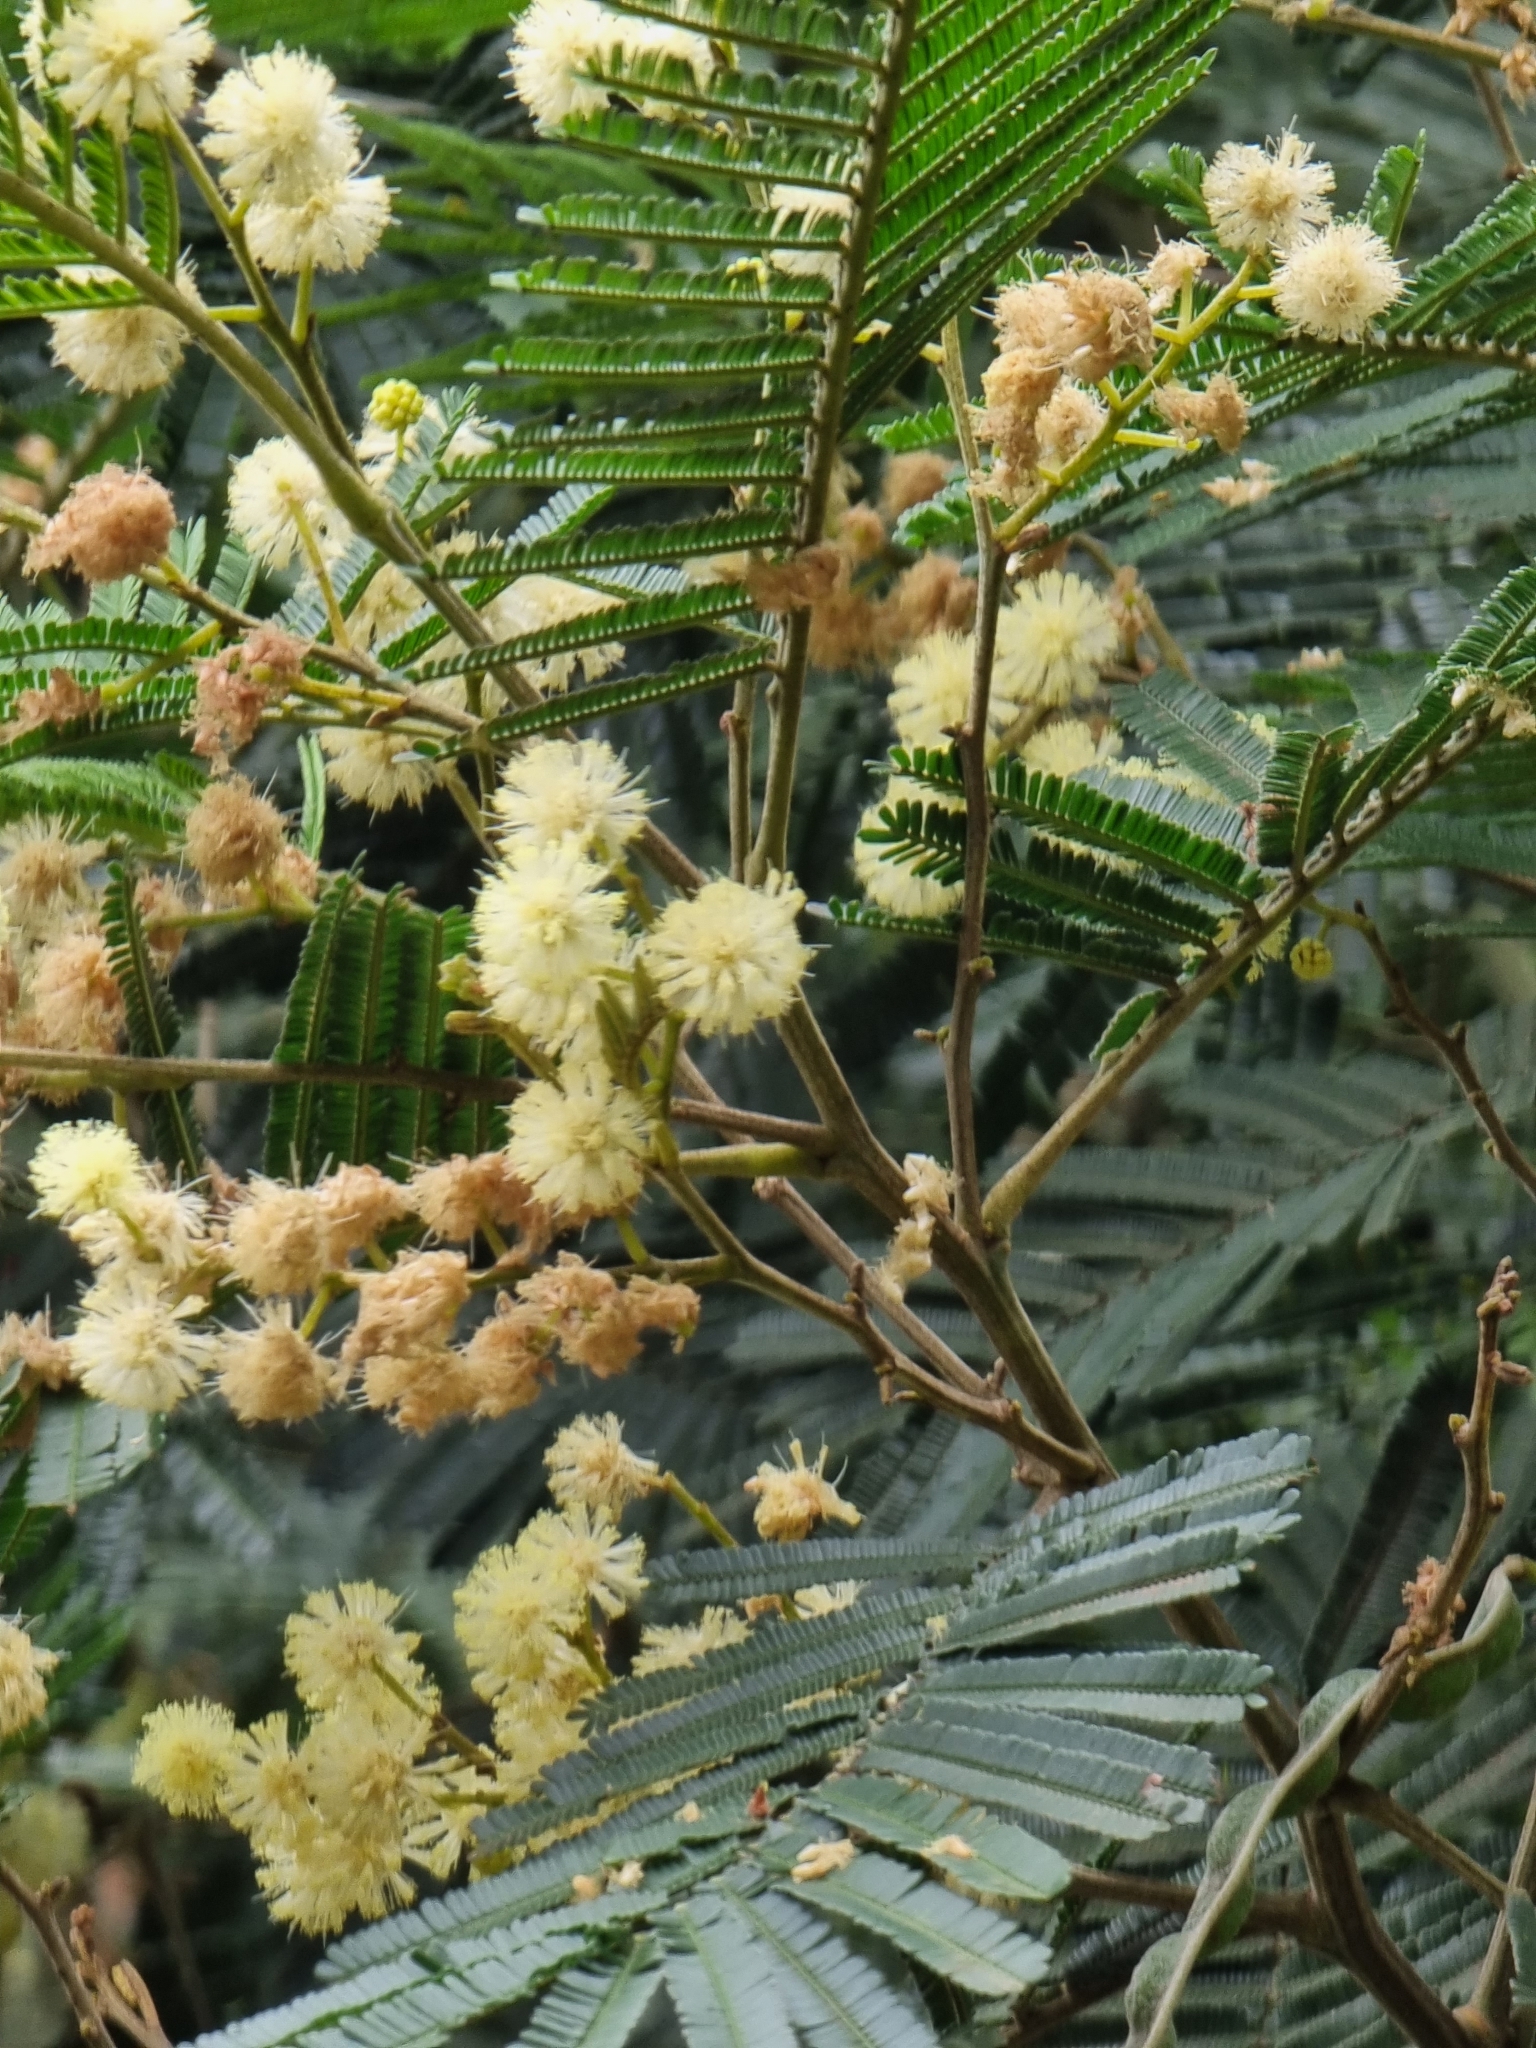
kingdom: Plantae
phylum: Tracheophyta
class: Magnoliopsida
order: Fabales
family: Fabaceae
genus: Acacia
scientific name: Acacia mearnsii
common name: Black wattle
